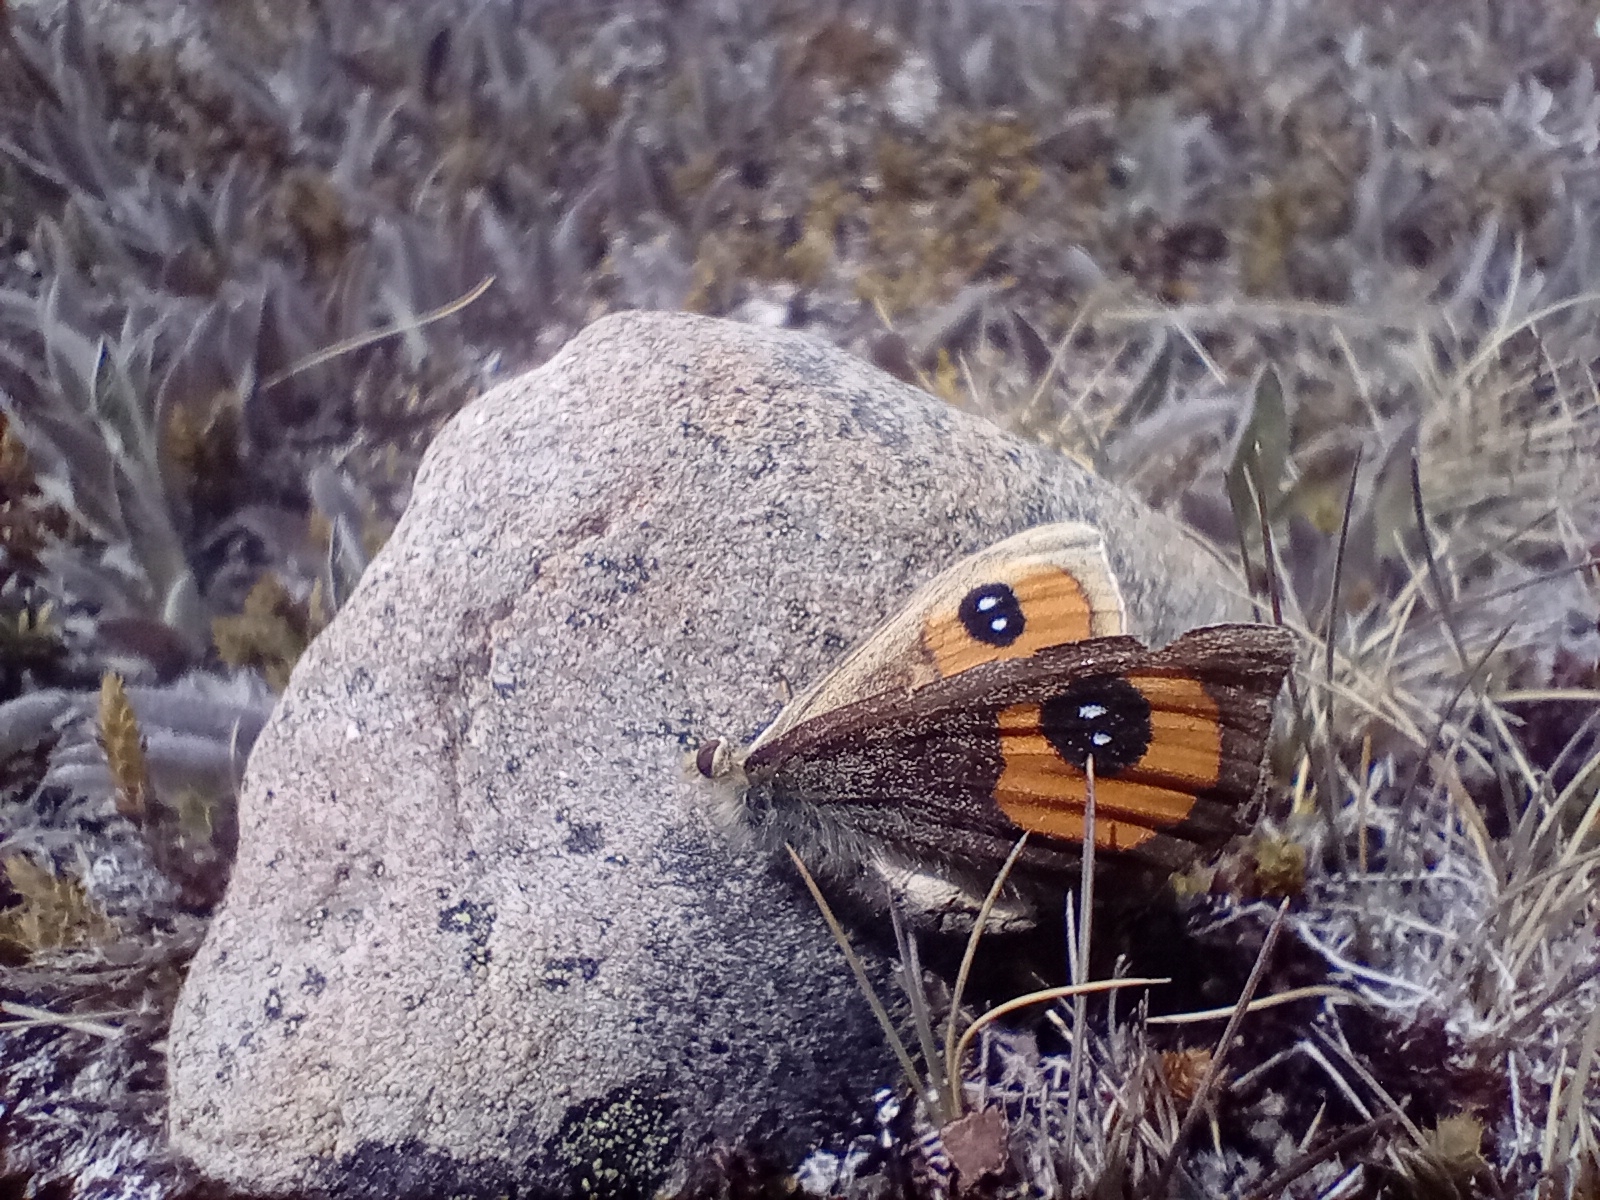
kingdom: Animalia
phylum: Arthropoda
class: Insecta
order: Lepidoptera
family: Nymphalidae
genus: Argyrophenga
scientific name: Argyrophenga antipodum
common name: Common tussock butterfly
